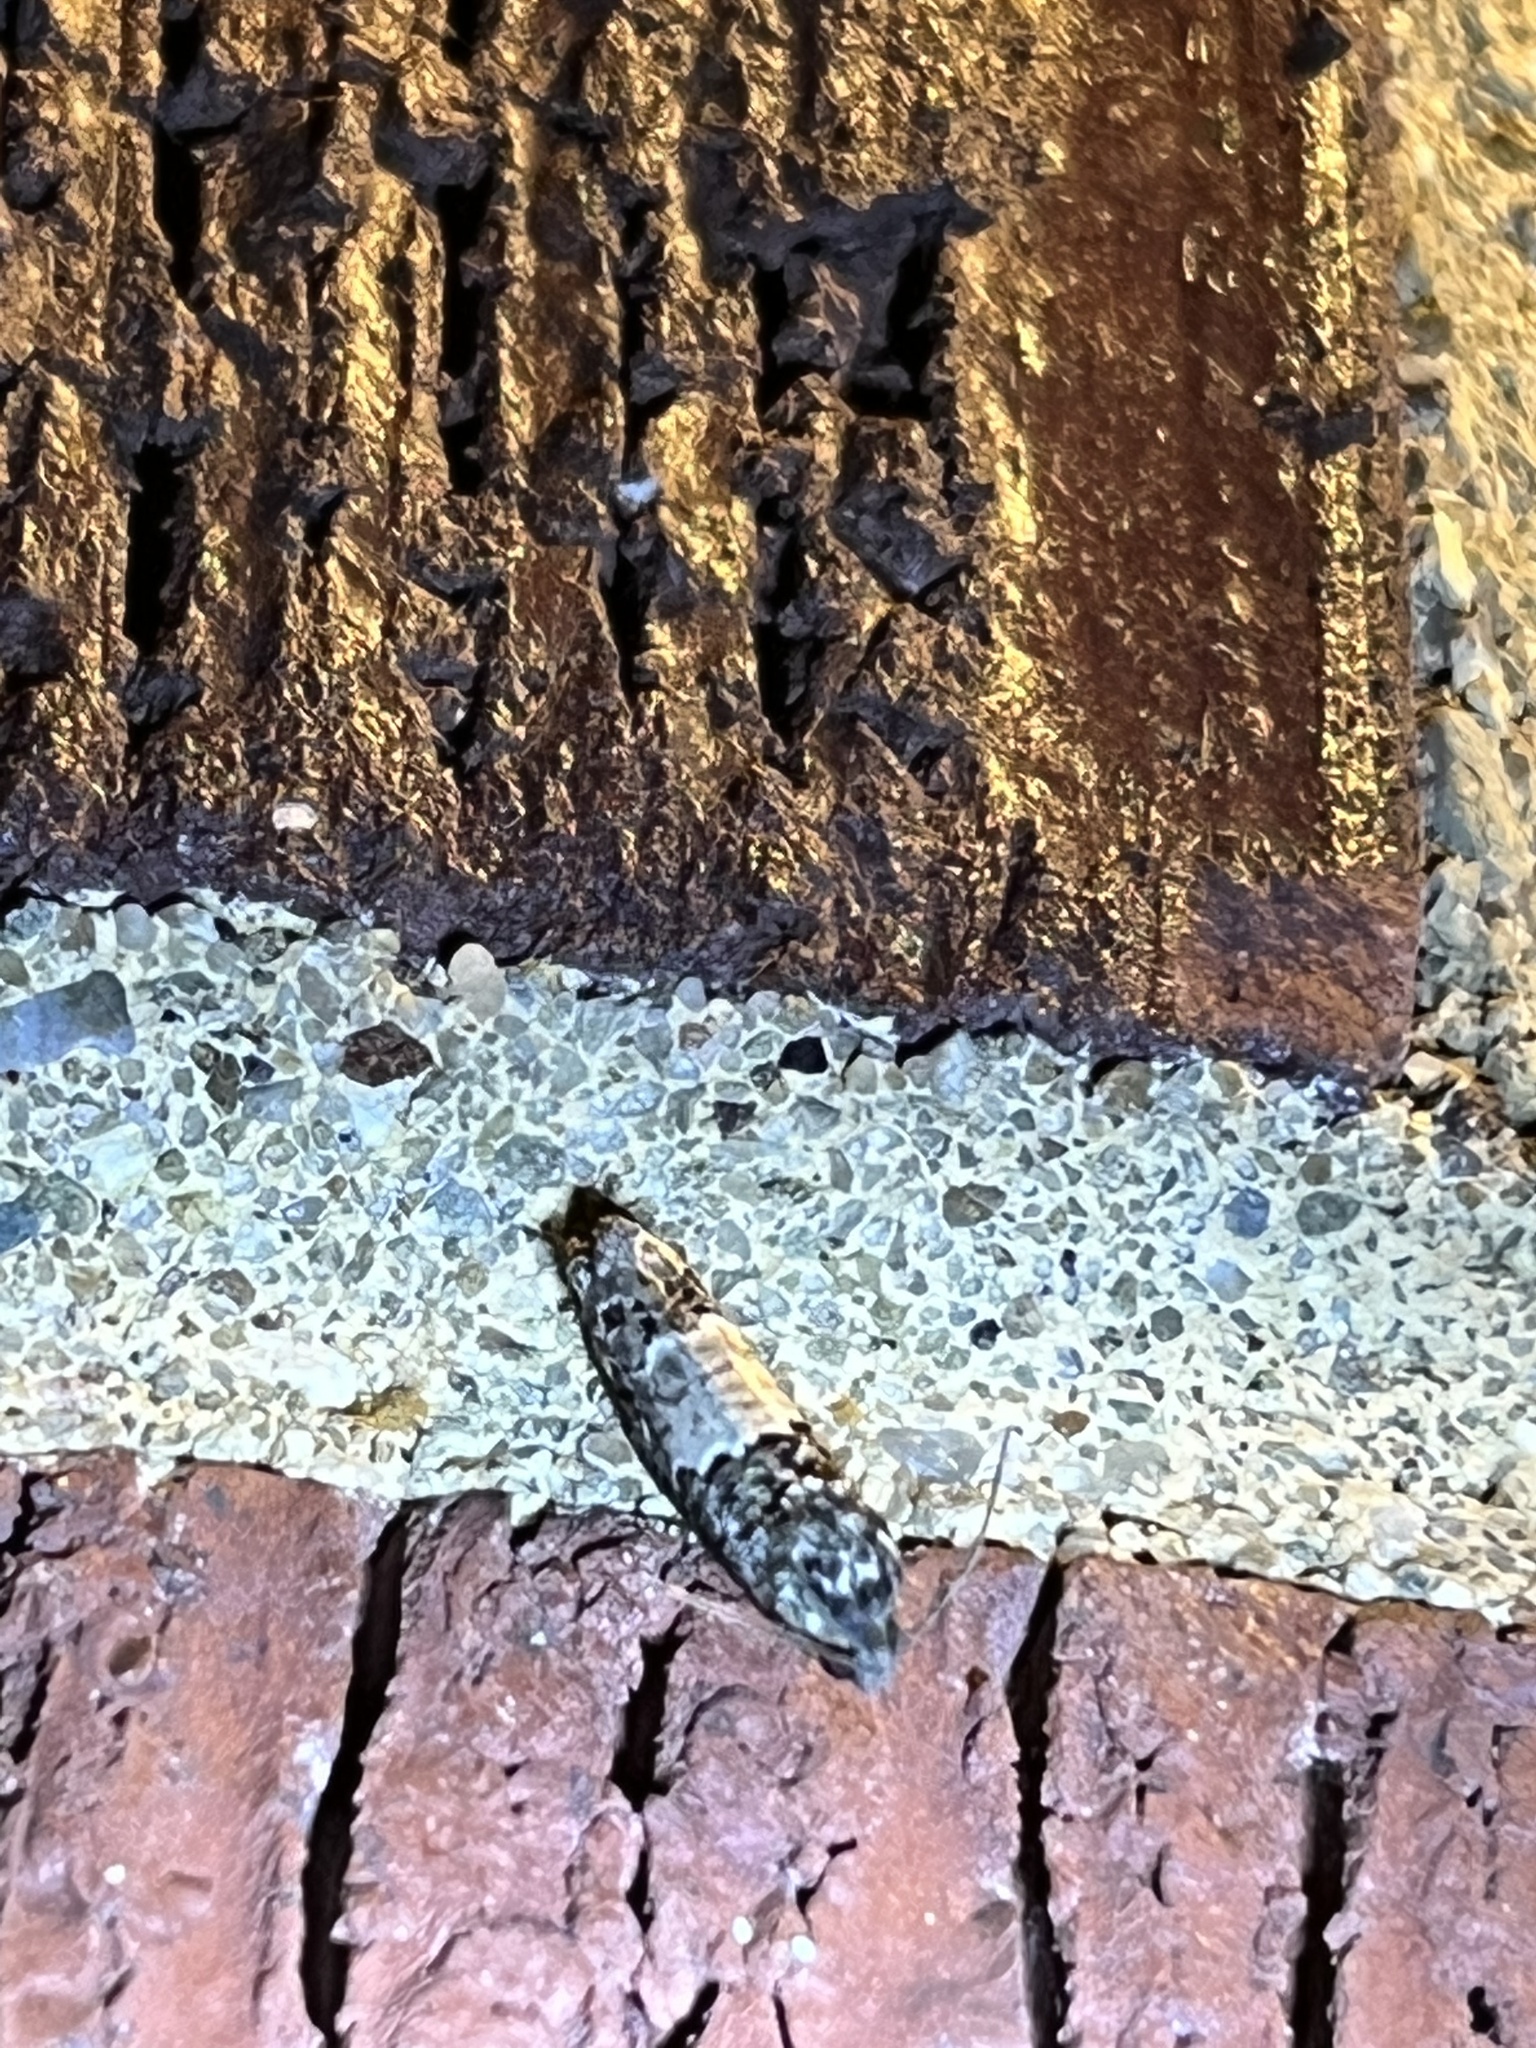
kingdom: Animalia
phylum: Arthropoda
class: Insecta
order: Lepidoptera
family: Tortricidae
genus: Epiblema
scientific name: Epiblema carolinana
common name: Gray-blotched epiblema moth
